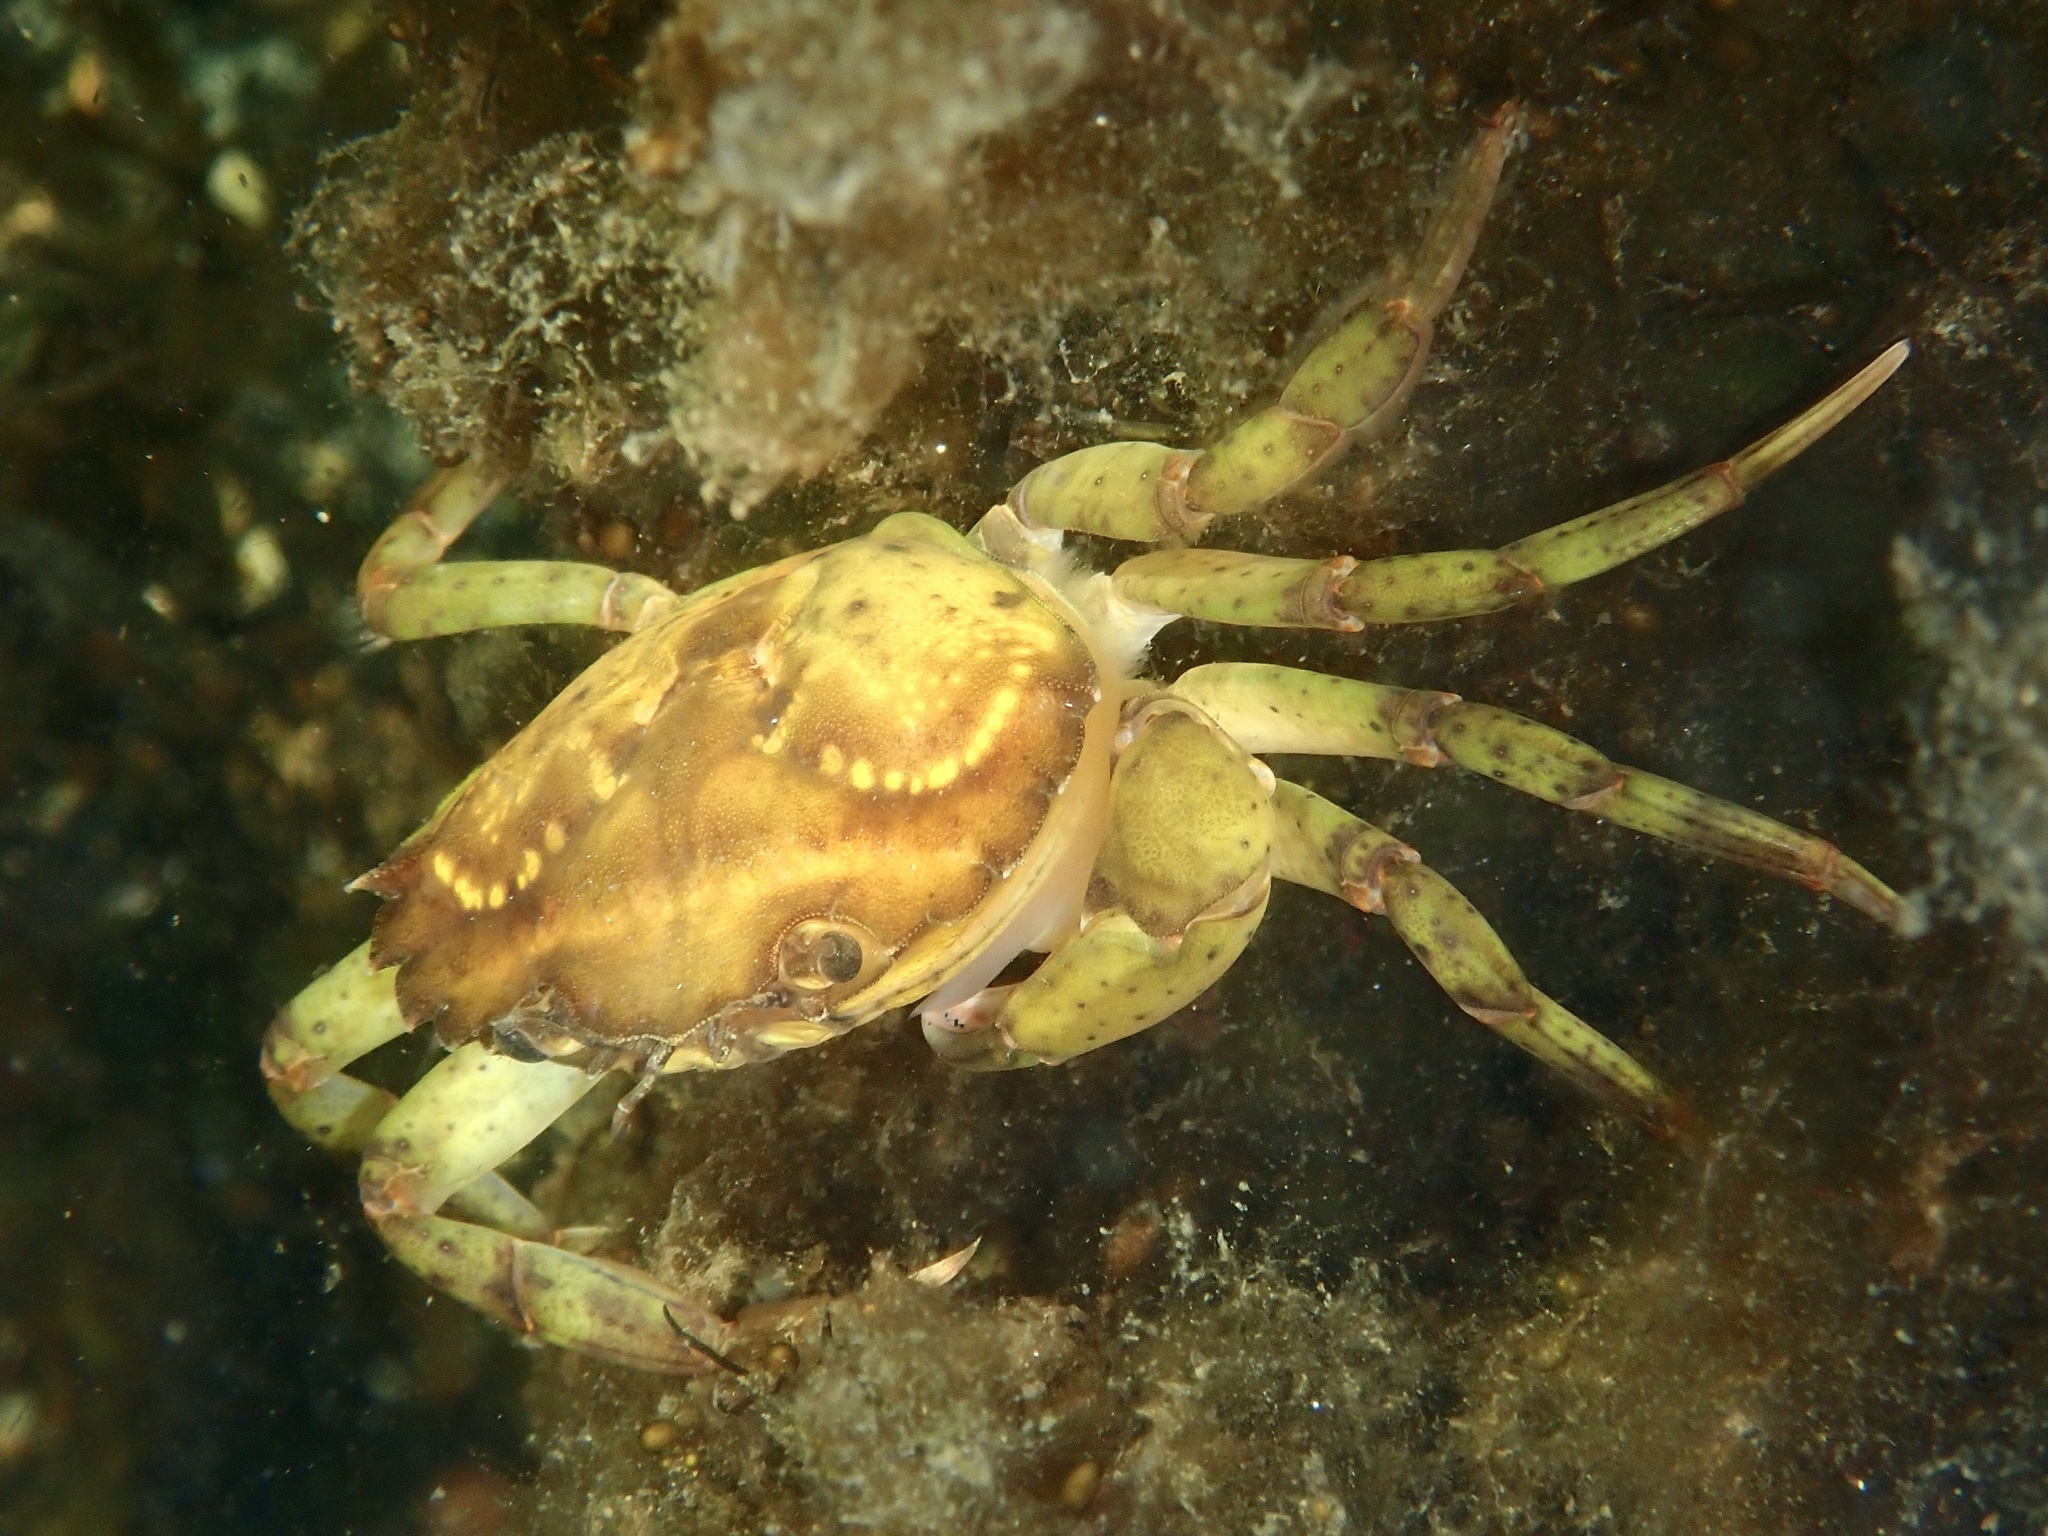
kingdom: Animalia
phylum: Arthropoda
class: Malacostraca
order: Decapoda
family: Carcinidae
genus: Carcinus
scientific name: Carcinus maenas
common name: European green crab
